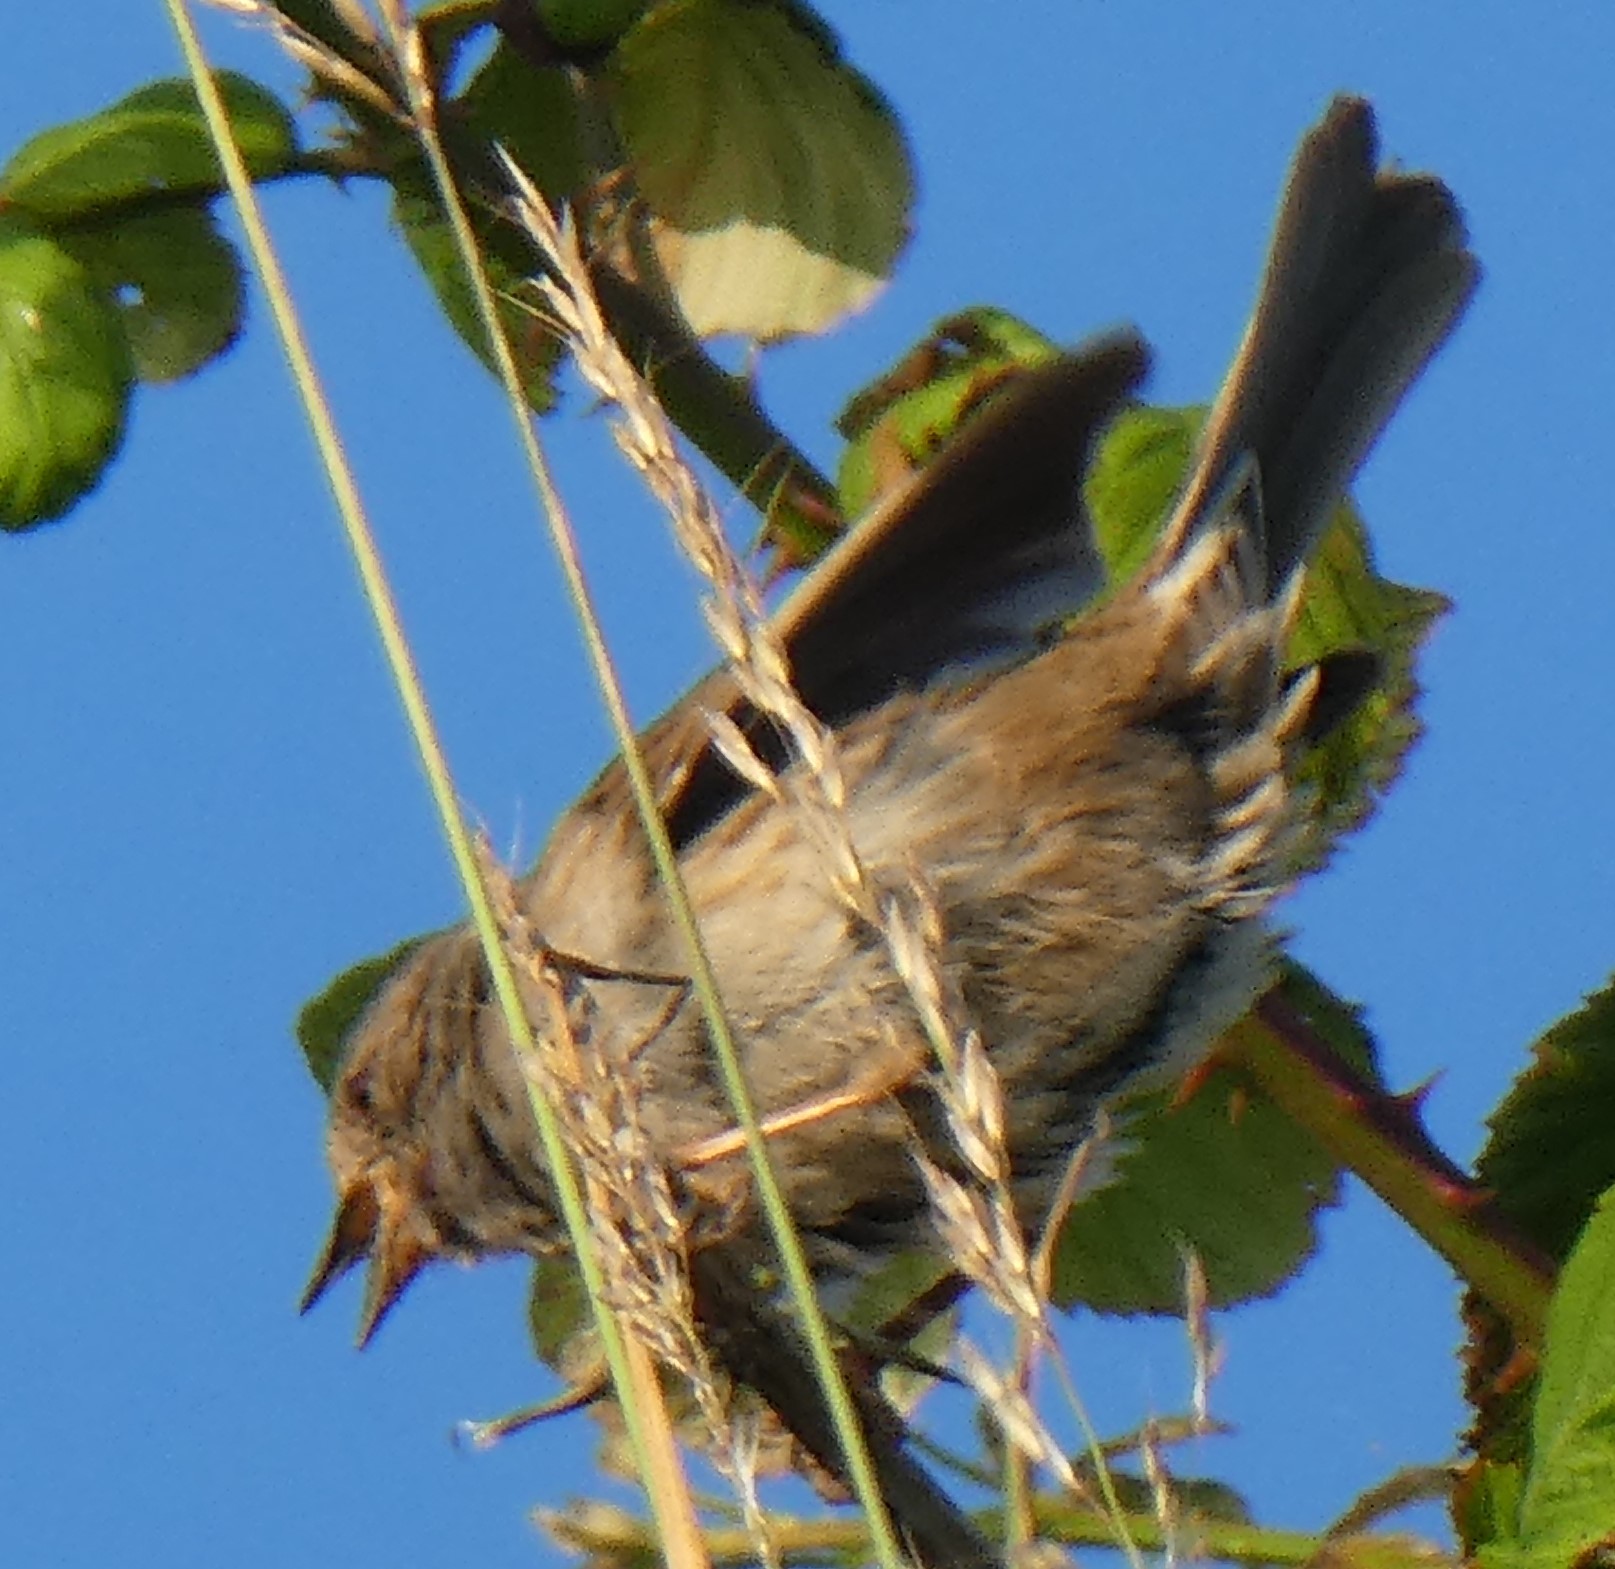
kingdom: Animalia
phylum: Chordata
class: Aves
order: Passeriformes
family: Prunellidae
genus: Prunella
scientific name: Prunella modularis
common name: Dunnock
